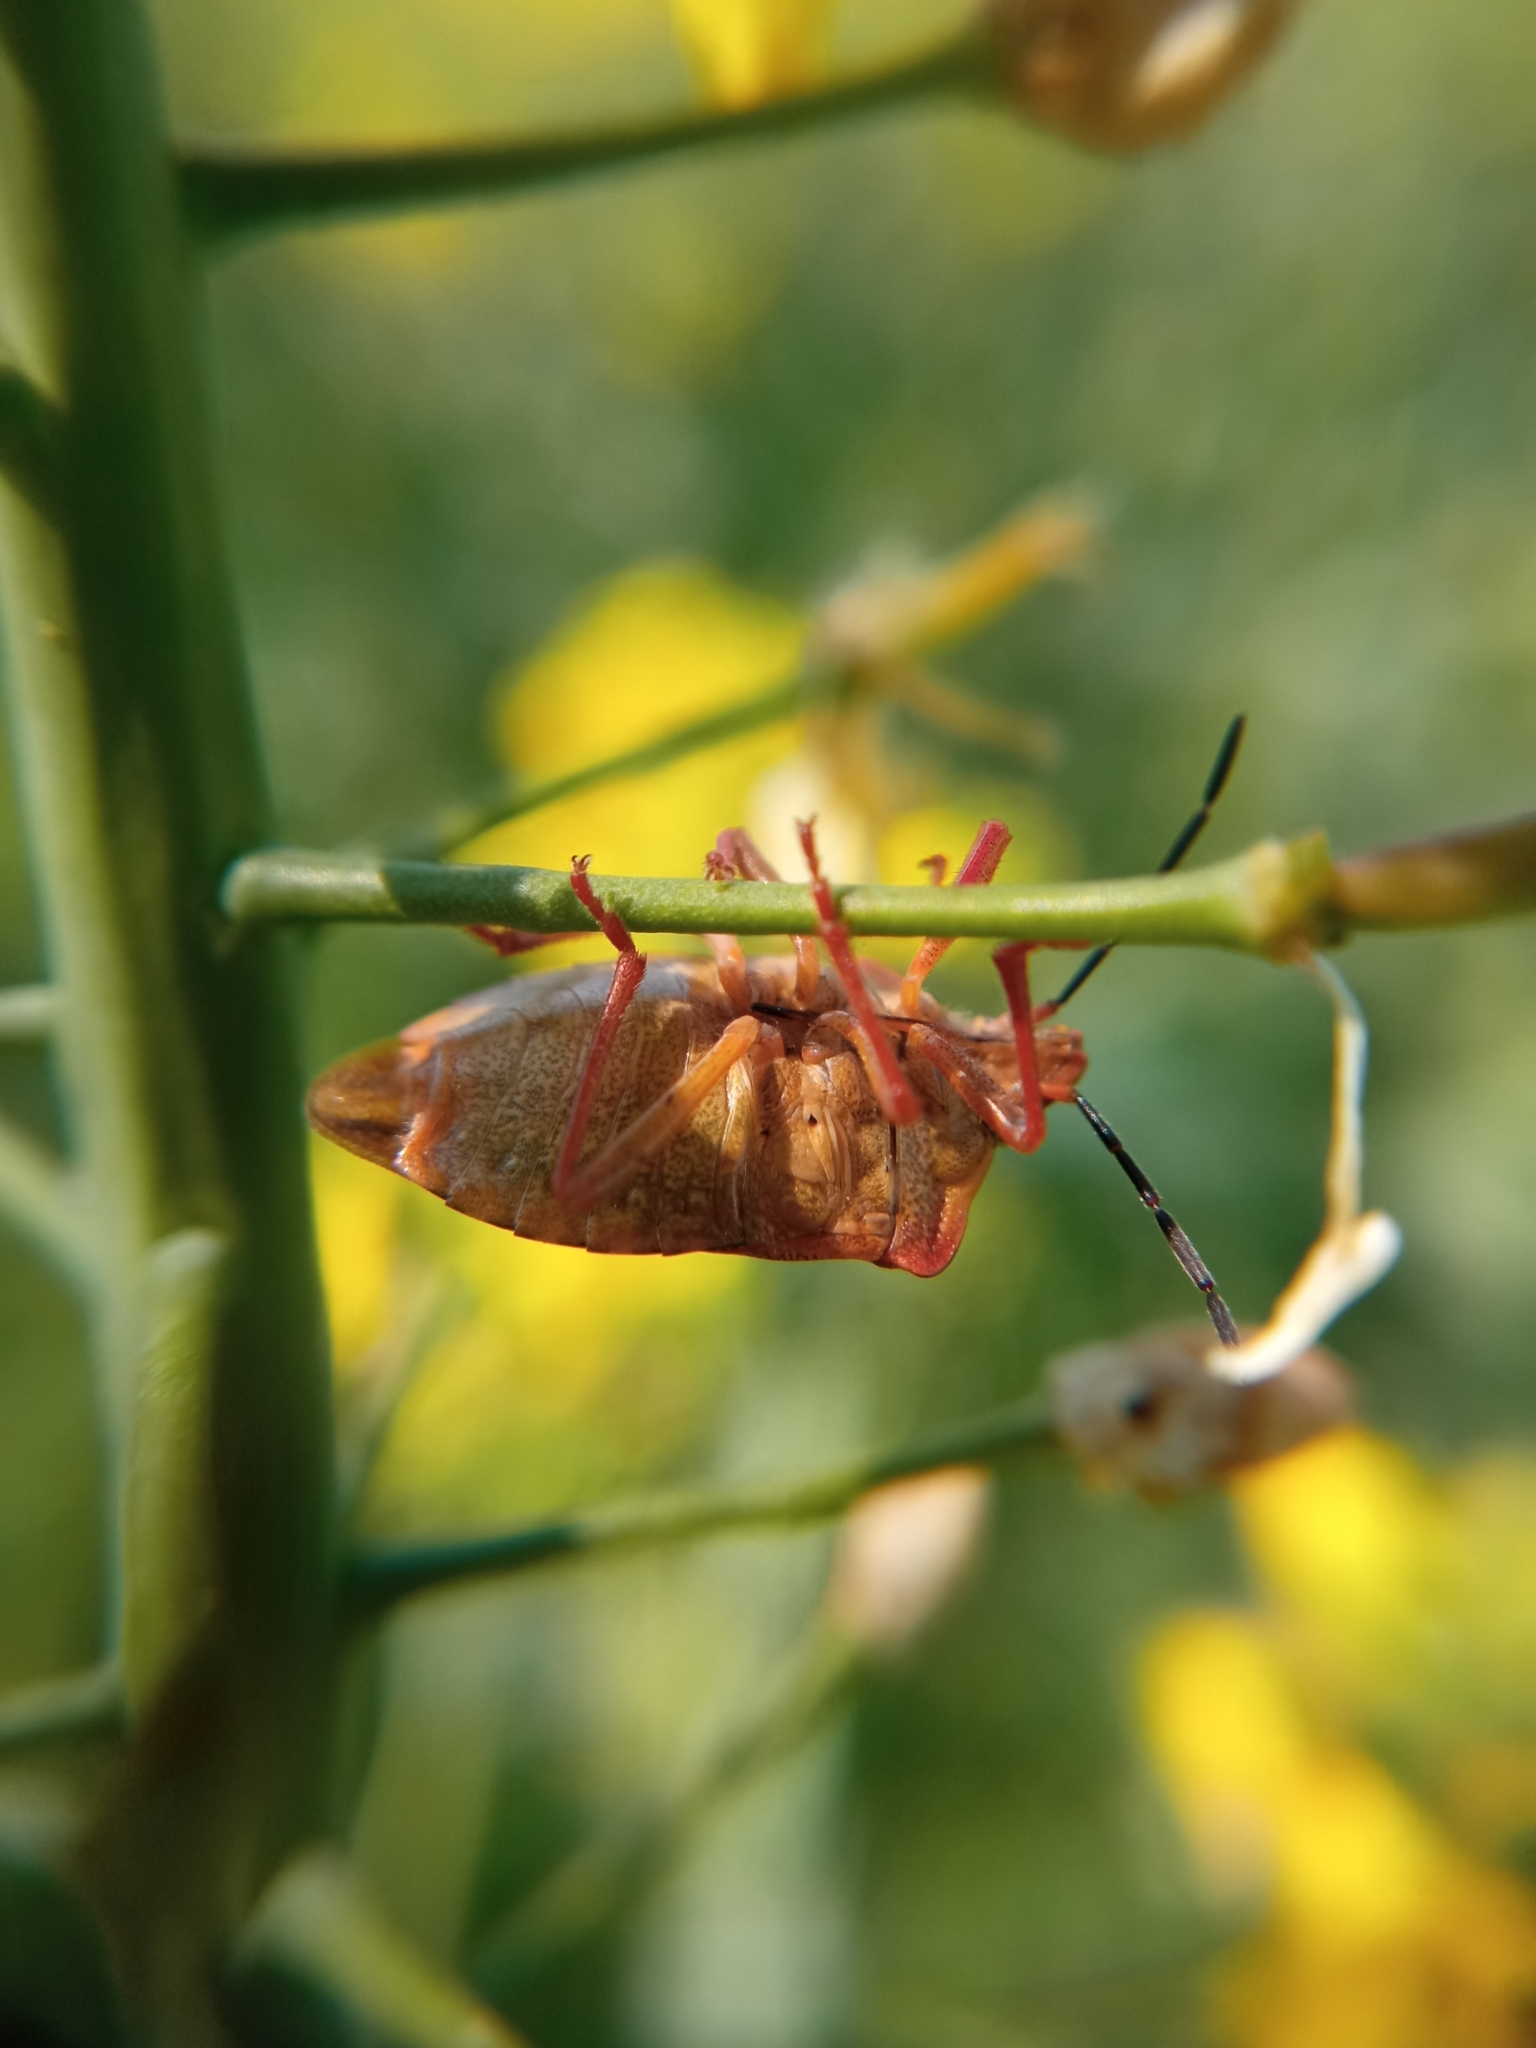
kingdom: Animalia
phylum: Arthropoda
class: Insecta
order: Hemiptera
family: Pentatomidae
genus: Carpocoris
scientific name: Carpocoris purpureipennis
